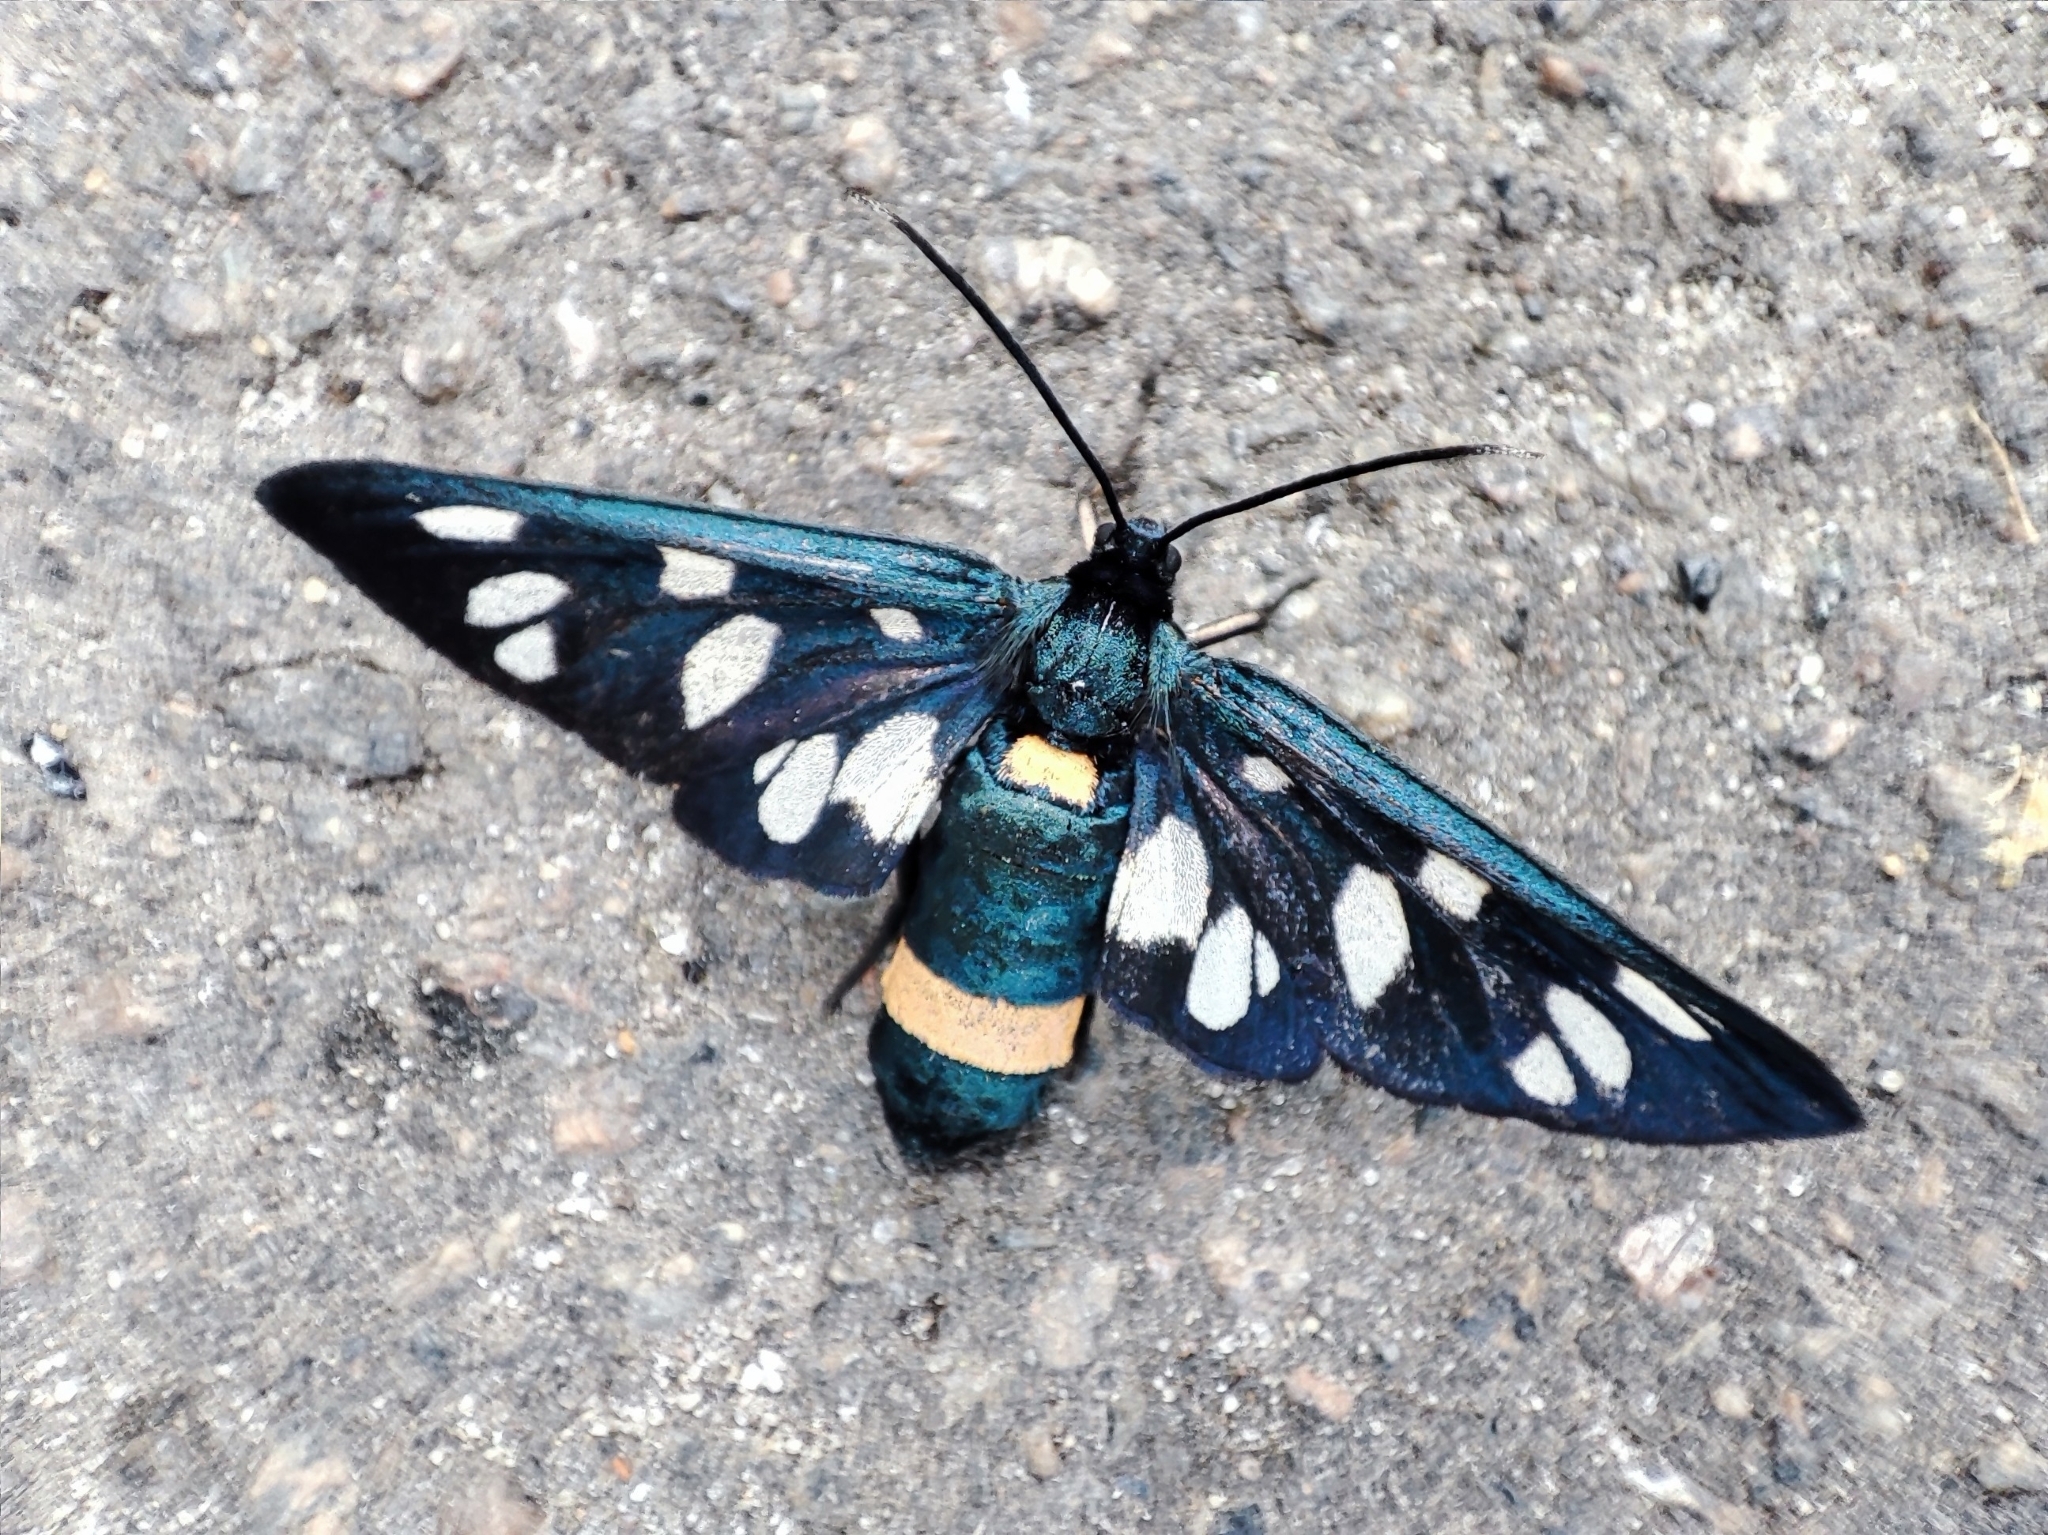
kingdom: Animalia
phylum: Arthropoda
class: Insecta
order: Lepidoptera
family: Erebidae
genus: Amata
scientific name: Amata phegea
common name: Nine-spotted
